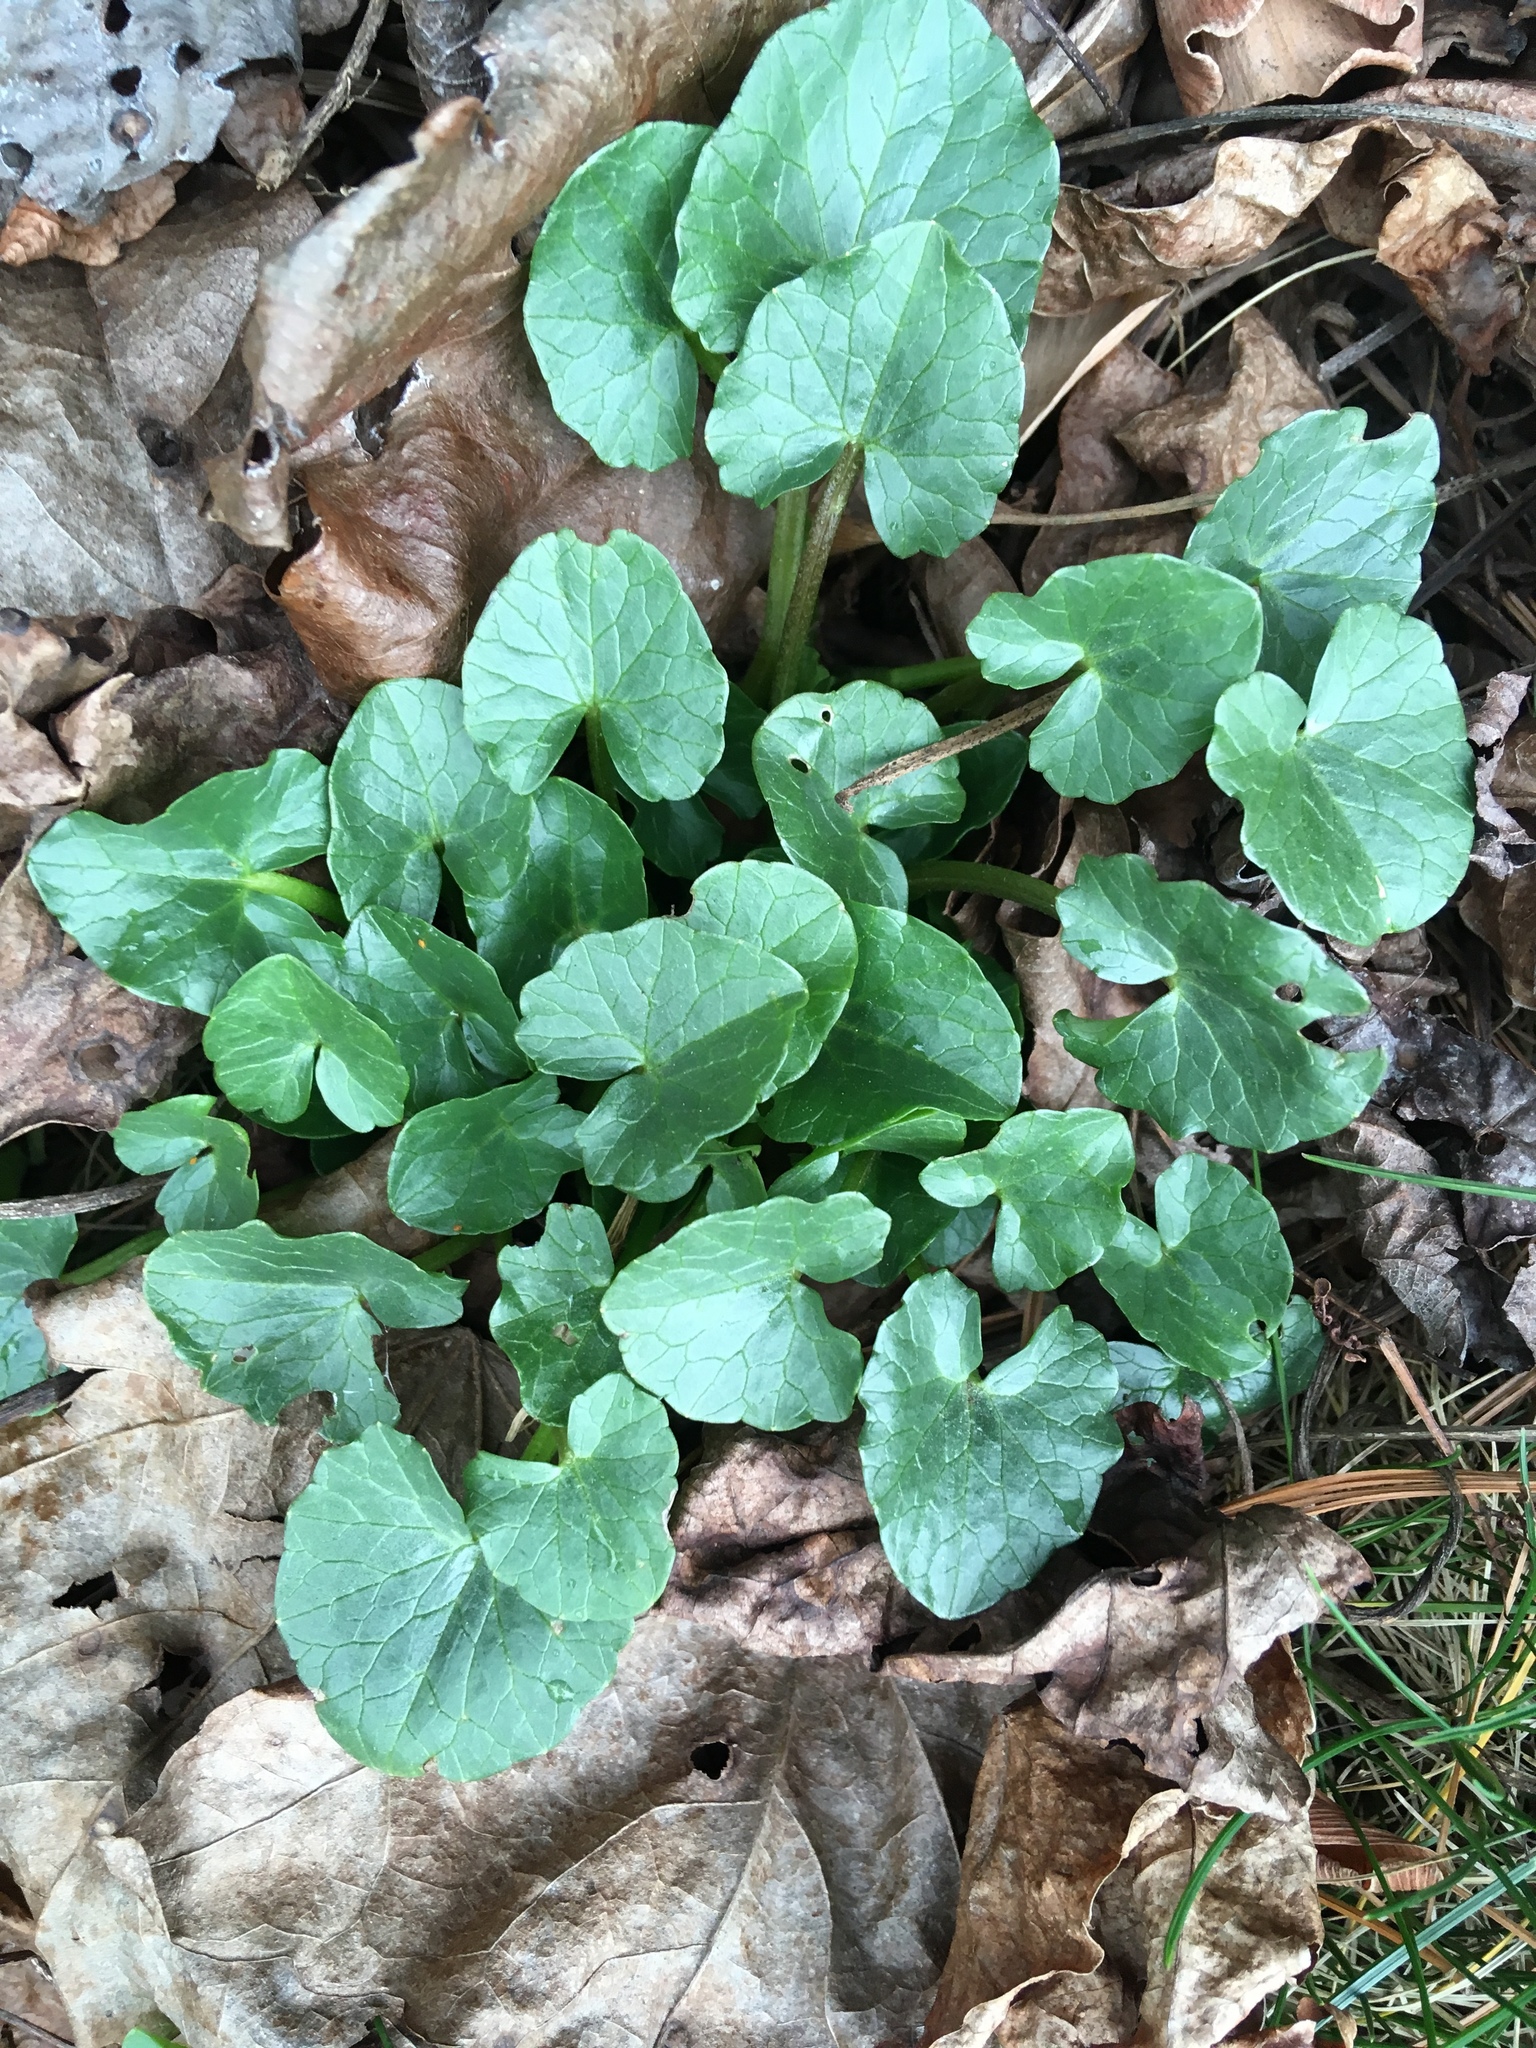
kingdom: Plantae
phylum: Tracheophyta
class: Magnoliopsida
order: Ranunculales
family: Ranunculaceae
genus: Ficaria
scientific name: Ficaria verna
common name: Lesser celandine
